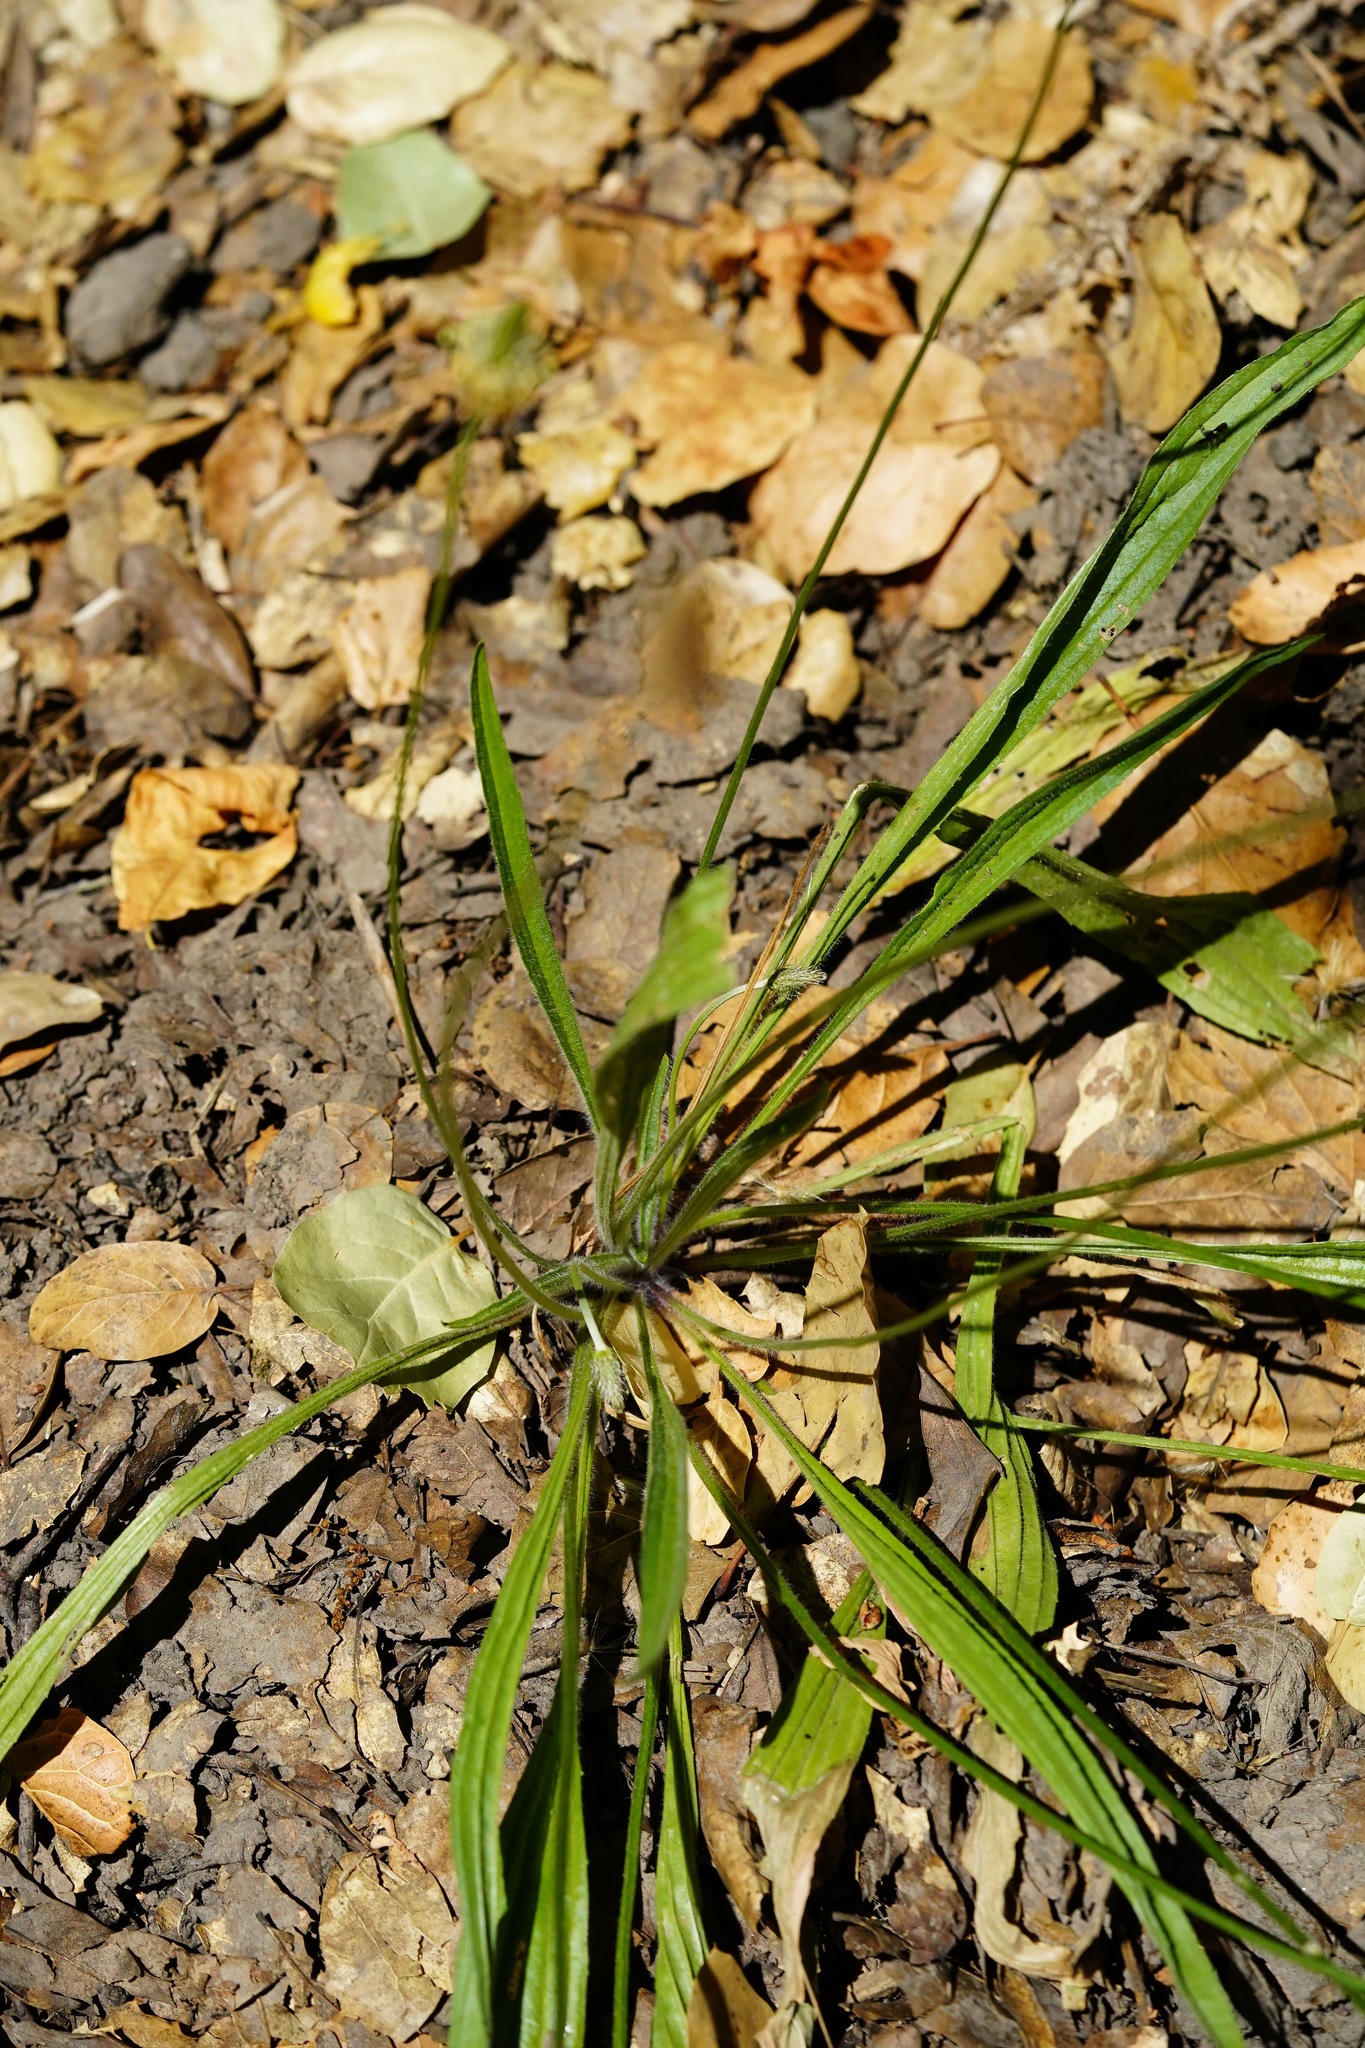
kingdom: Plantae
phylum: Tracheophyta
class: Magnoliopsida
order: Lamiales
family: Plantaginaceae
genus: Plantago
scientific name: Plantago lanceolata
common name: Ribwort plantain
